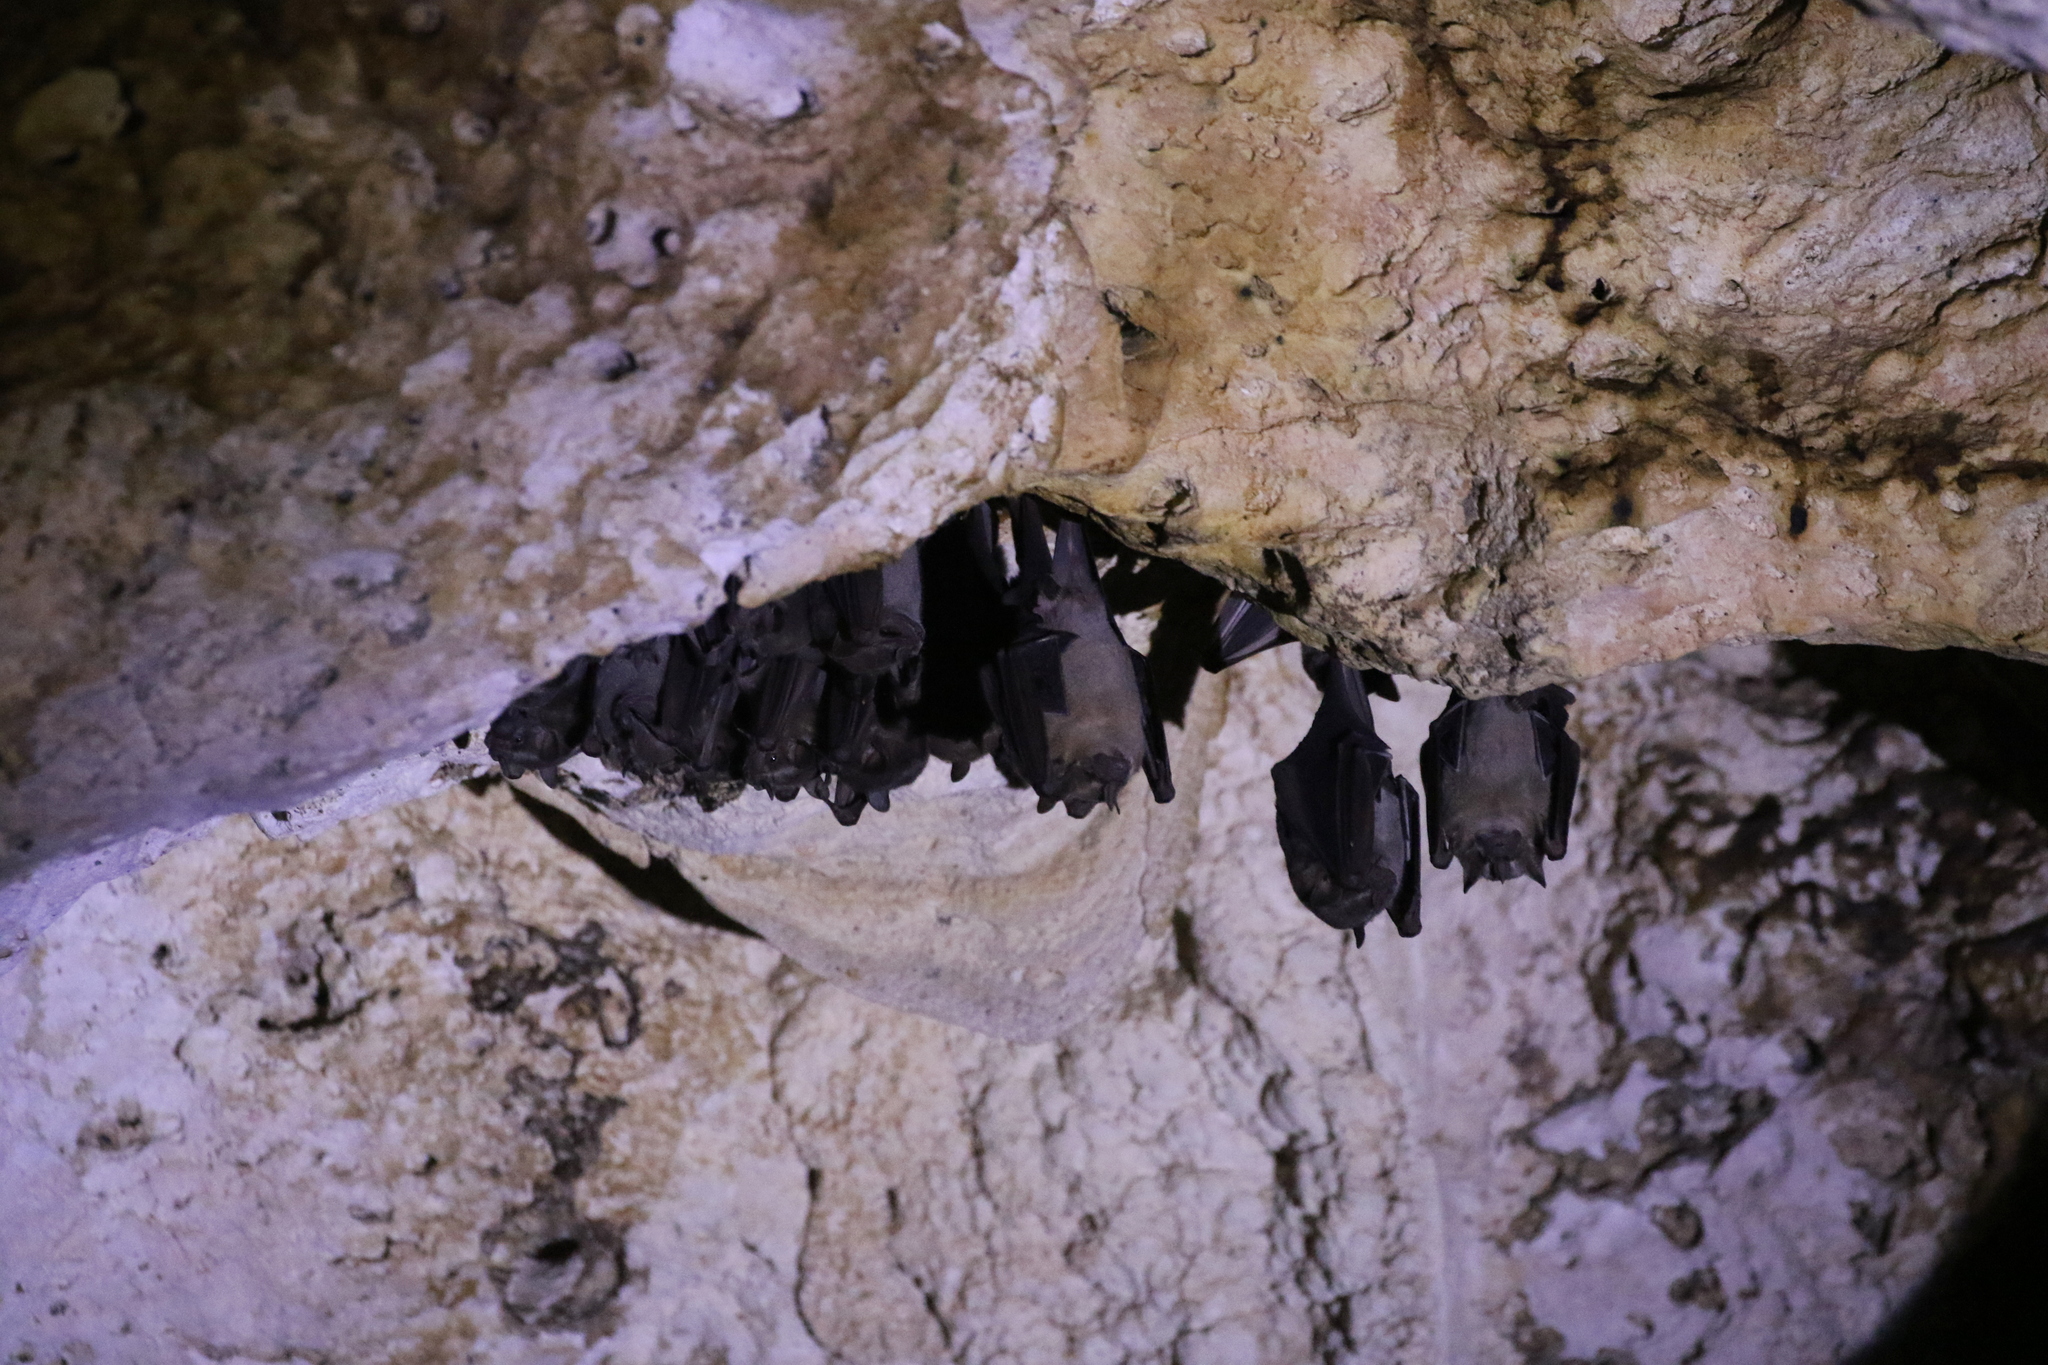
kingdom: Animalia
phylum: Chordata
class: Mammalia
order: Chiroptera
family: Phyllostomidae
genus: Artibeus
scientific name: Artibeus jamaicensis
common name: Jamaican fruit-eating bat
